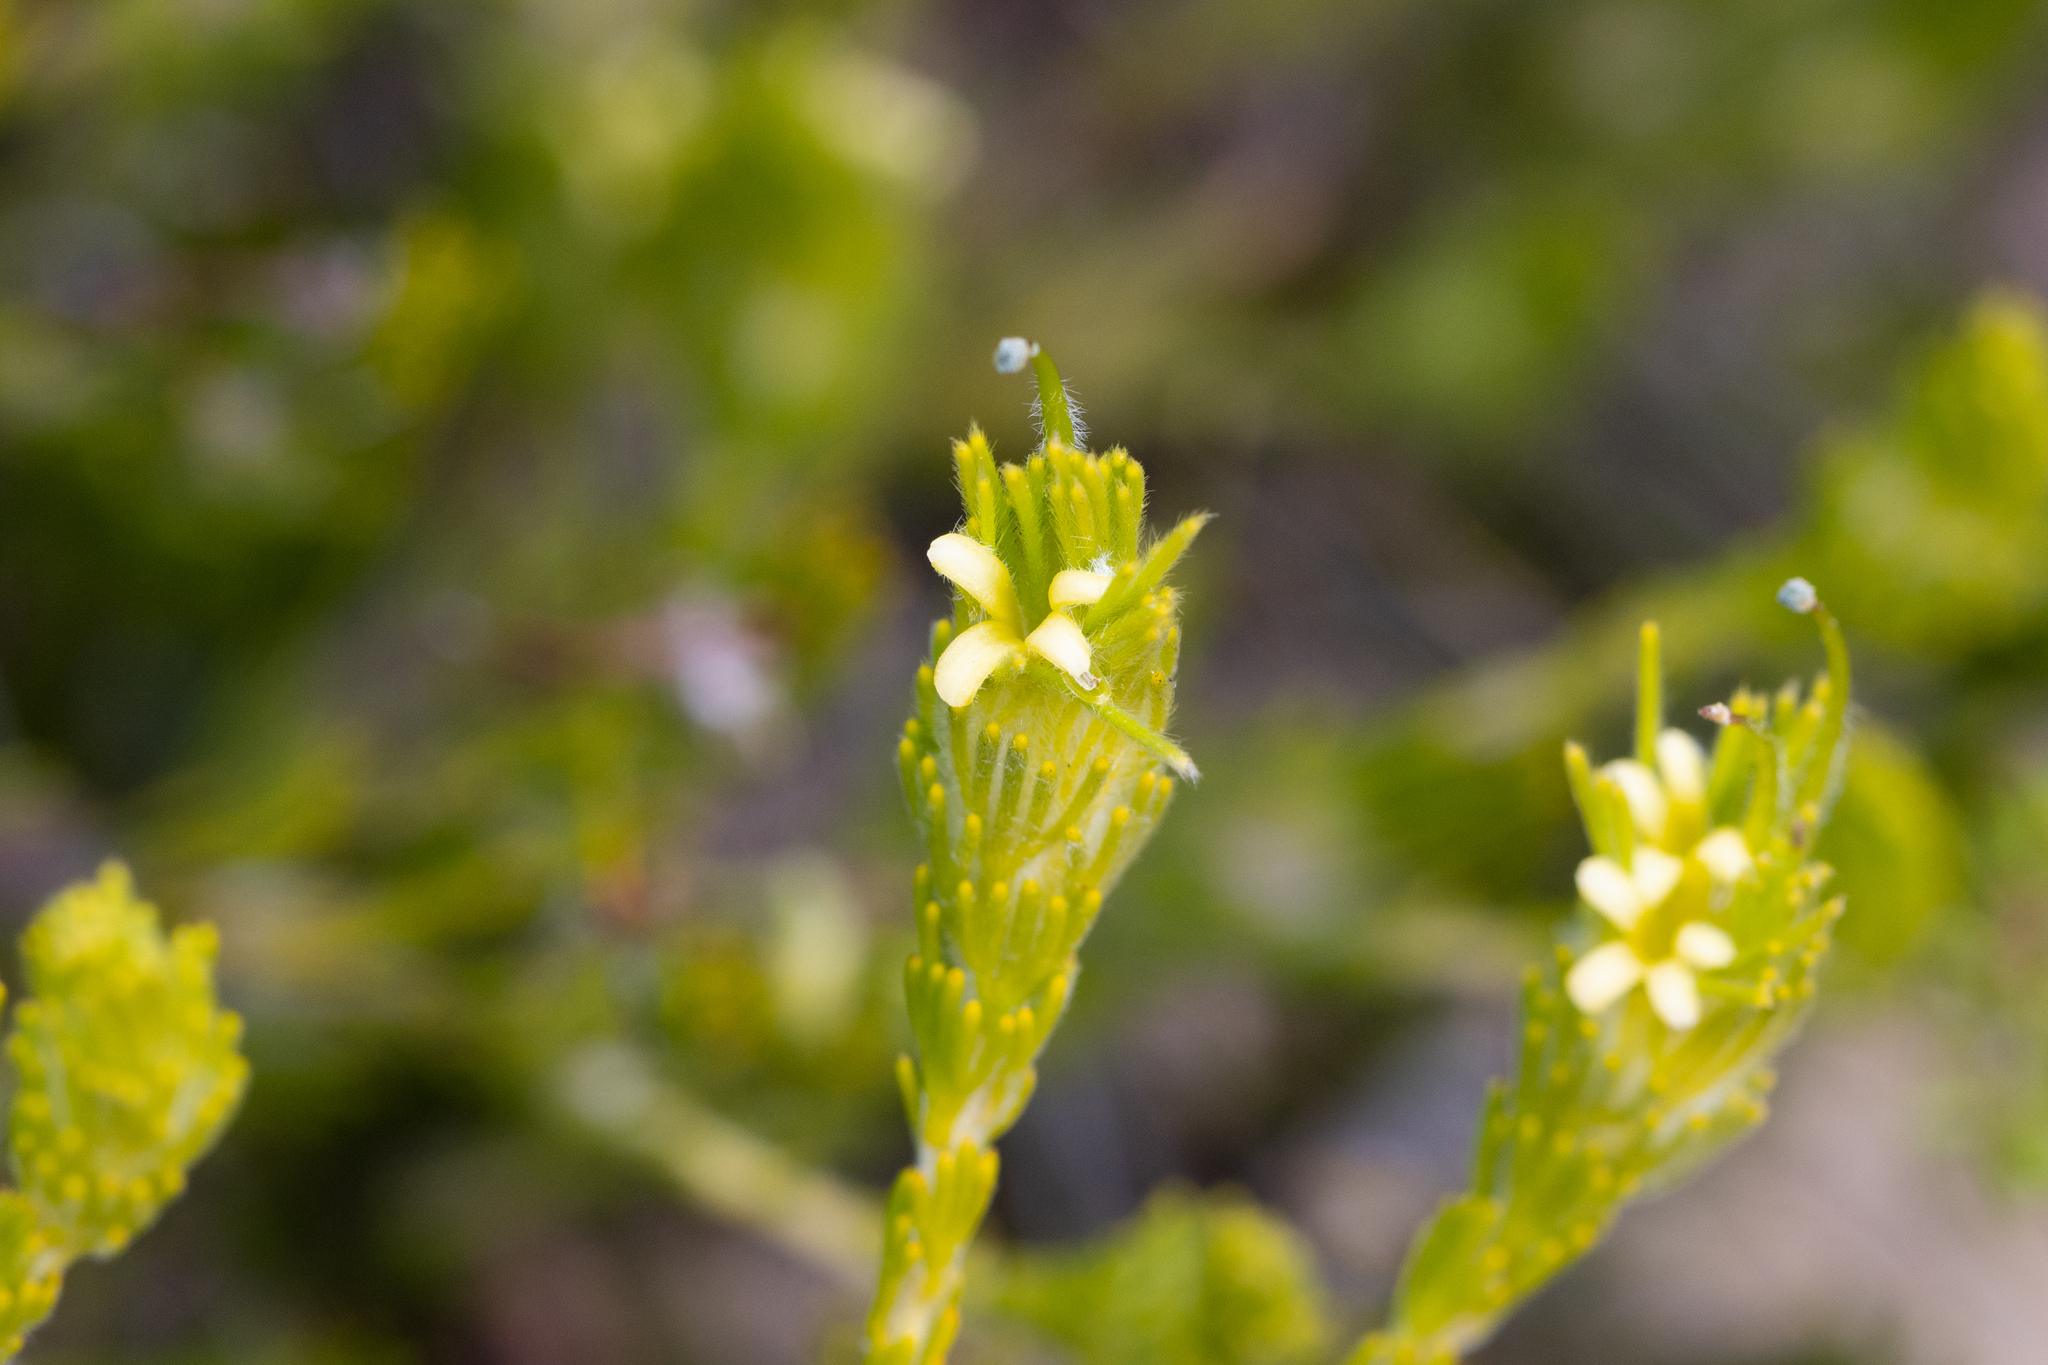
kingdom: Plantae
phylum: Tracheophyta
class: Magnoliopsida
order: Proteales
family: Proteaceae
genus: Adenanthos
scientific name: Adenanthos terminalis
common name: Yellow gland-flower
